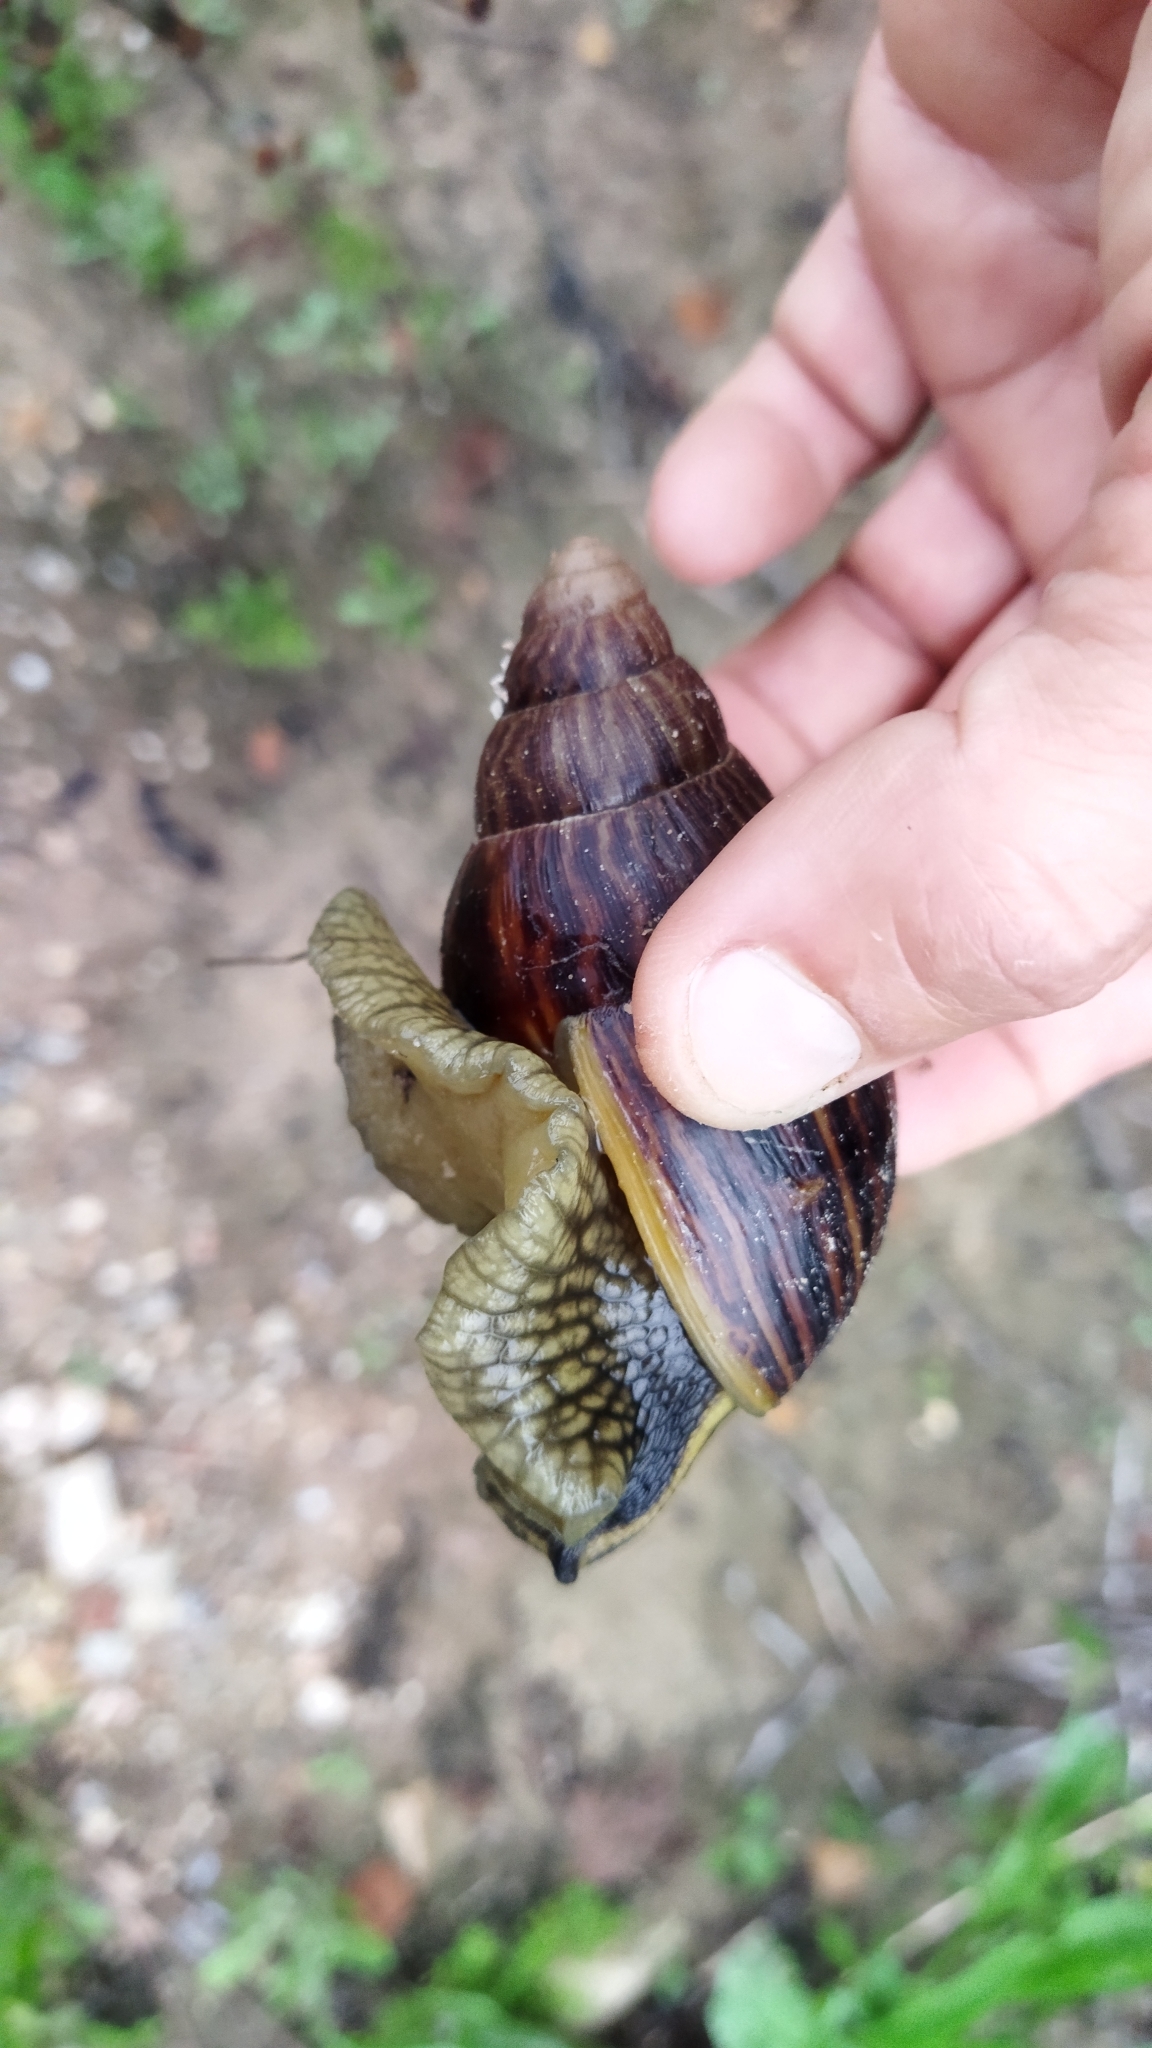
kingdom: Animalia
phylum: Mollusca
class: Gastropoda
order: Stylommatophora
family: Achatinidae
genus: Cochlitoma
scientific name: Cochlitoma zebra
